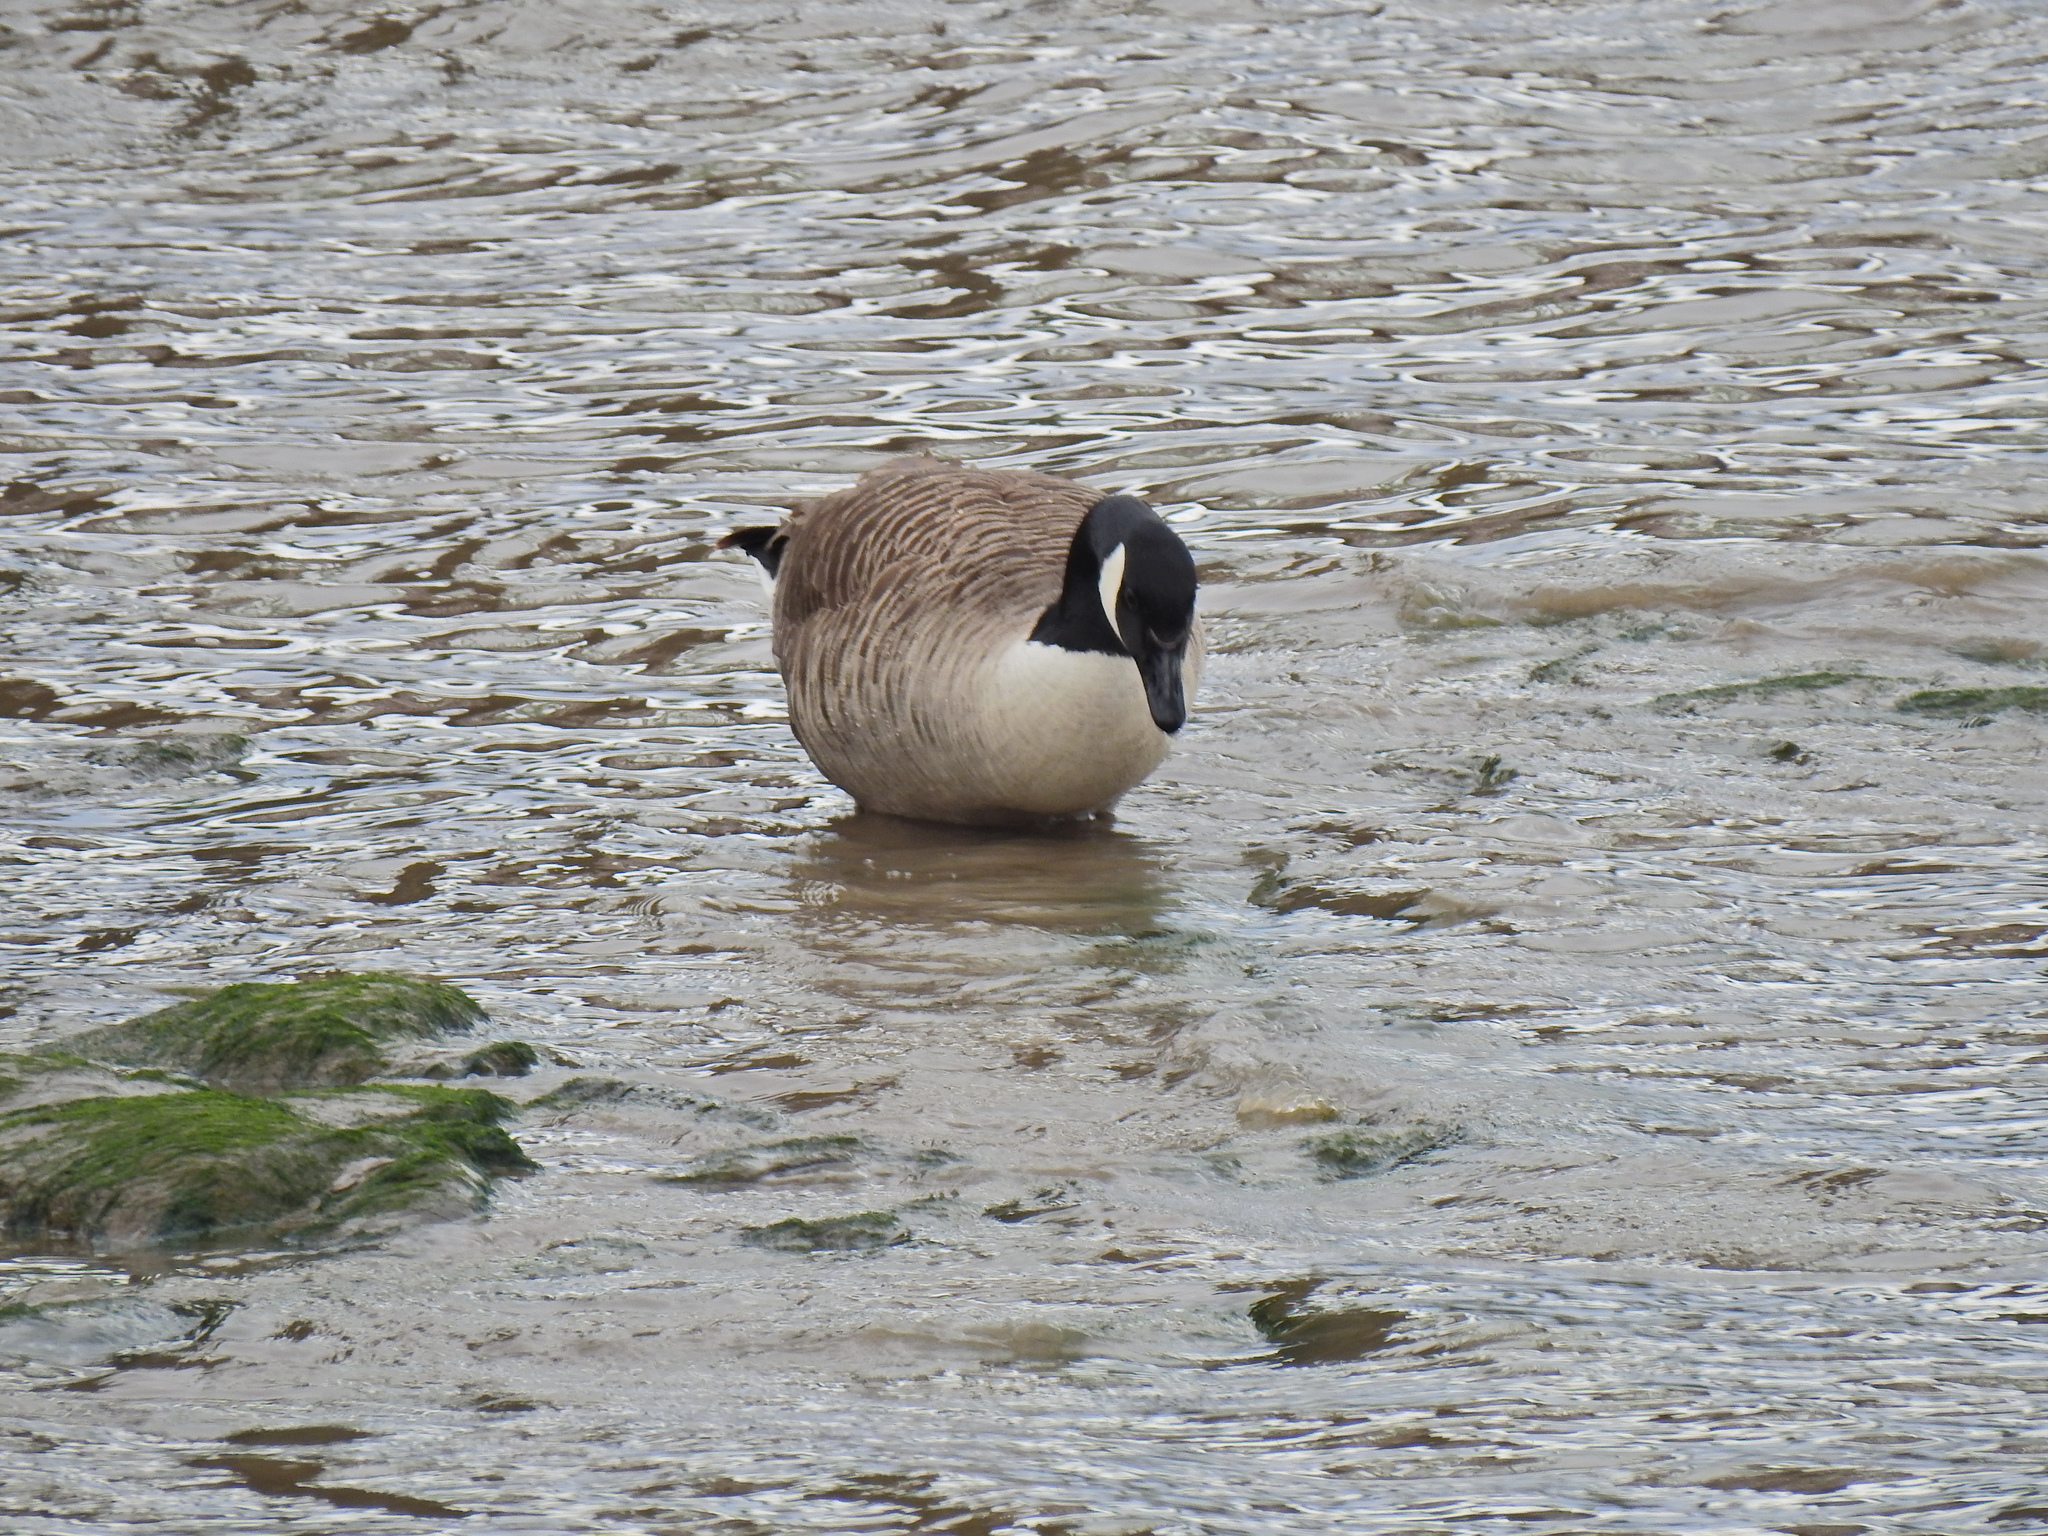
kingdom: Animalia
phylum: Chordata
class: Aves
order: Anseriformes
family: Anatidae
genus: Branta
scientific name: Branta canadensis
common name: Canada goose
